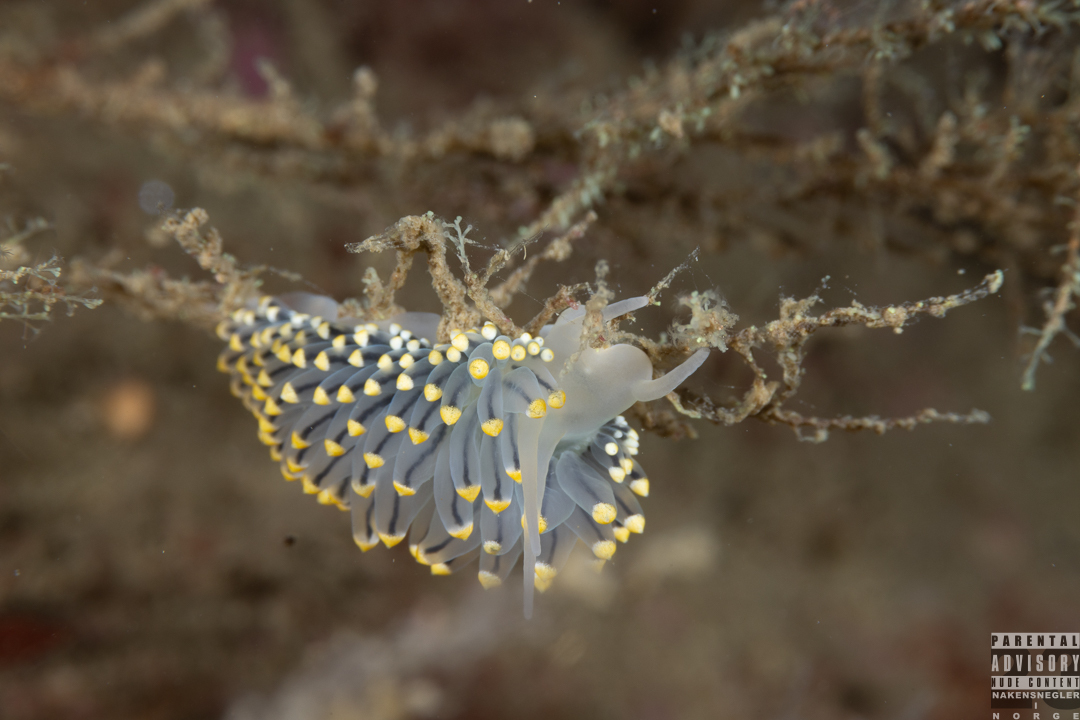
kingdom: Animalia
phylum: Mollusca
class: Gastropoda
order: Nudibranchia
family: Eubranchidae
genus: Eubranchus
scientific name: Eubranchus tricolor
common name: Painted balloon aeolis
